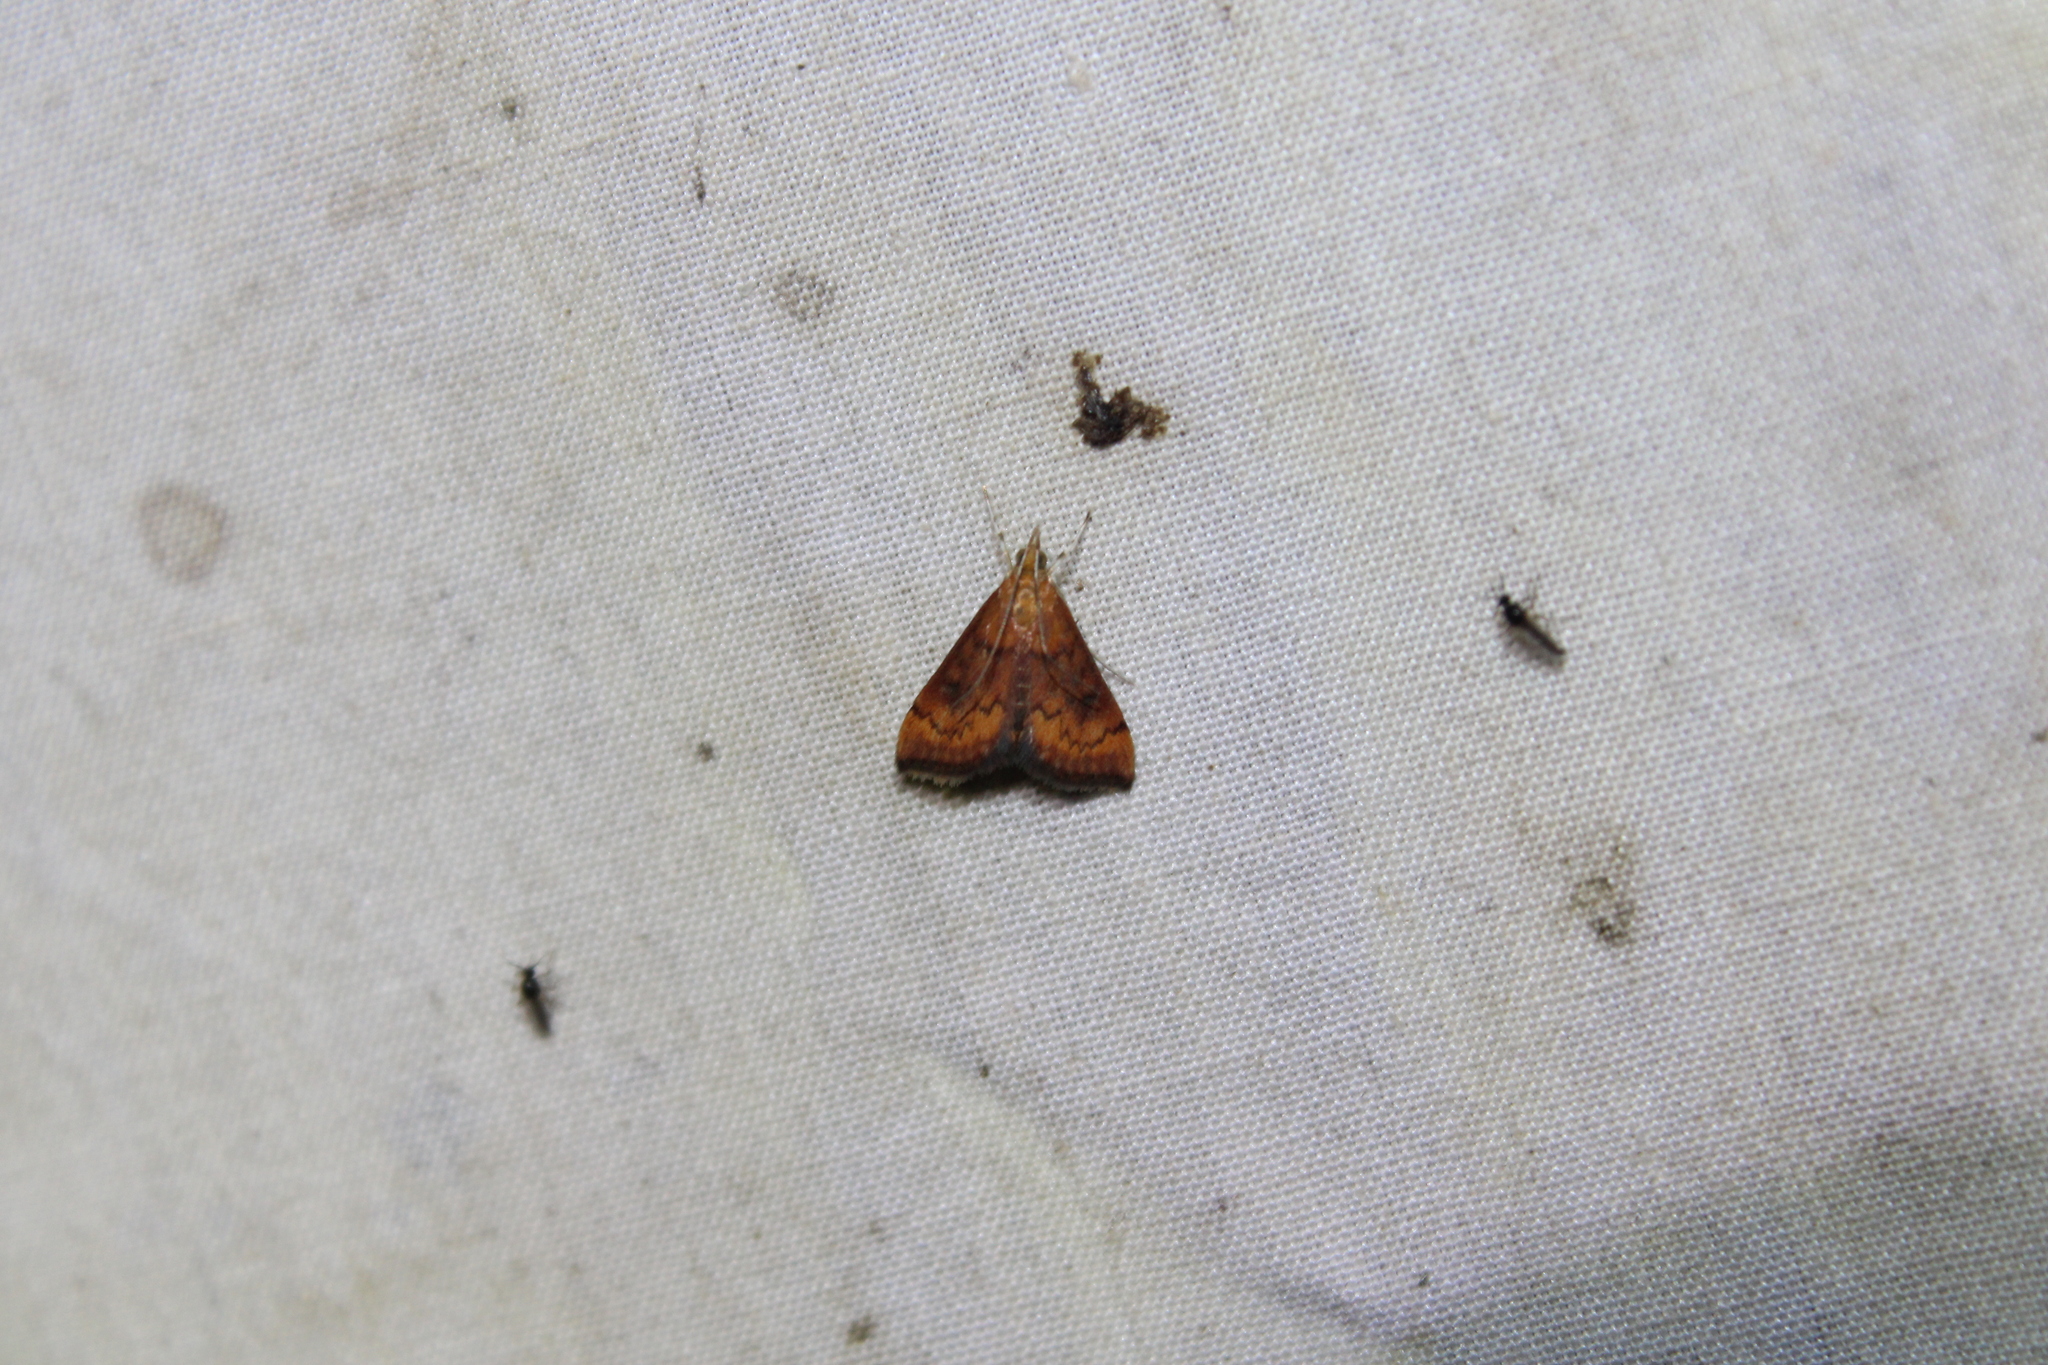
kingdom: Animalia
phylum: Arthropoda
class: Insecta
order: Lepidoptera
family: Crambidae
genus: Pyrausta
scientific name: Pyrausta rubricalis
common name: Variable reddish pyrausta
